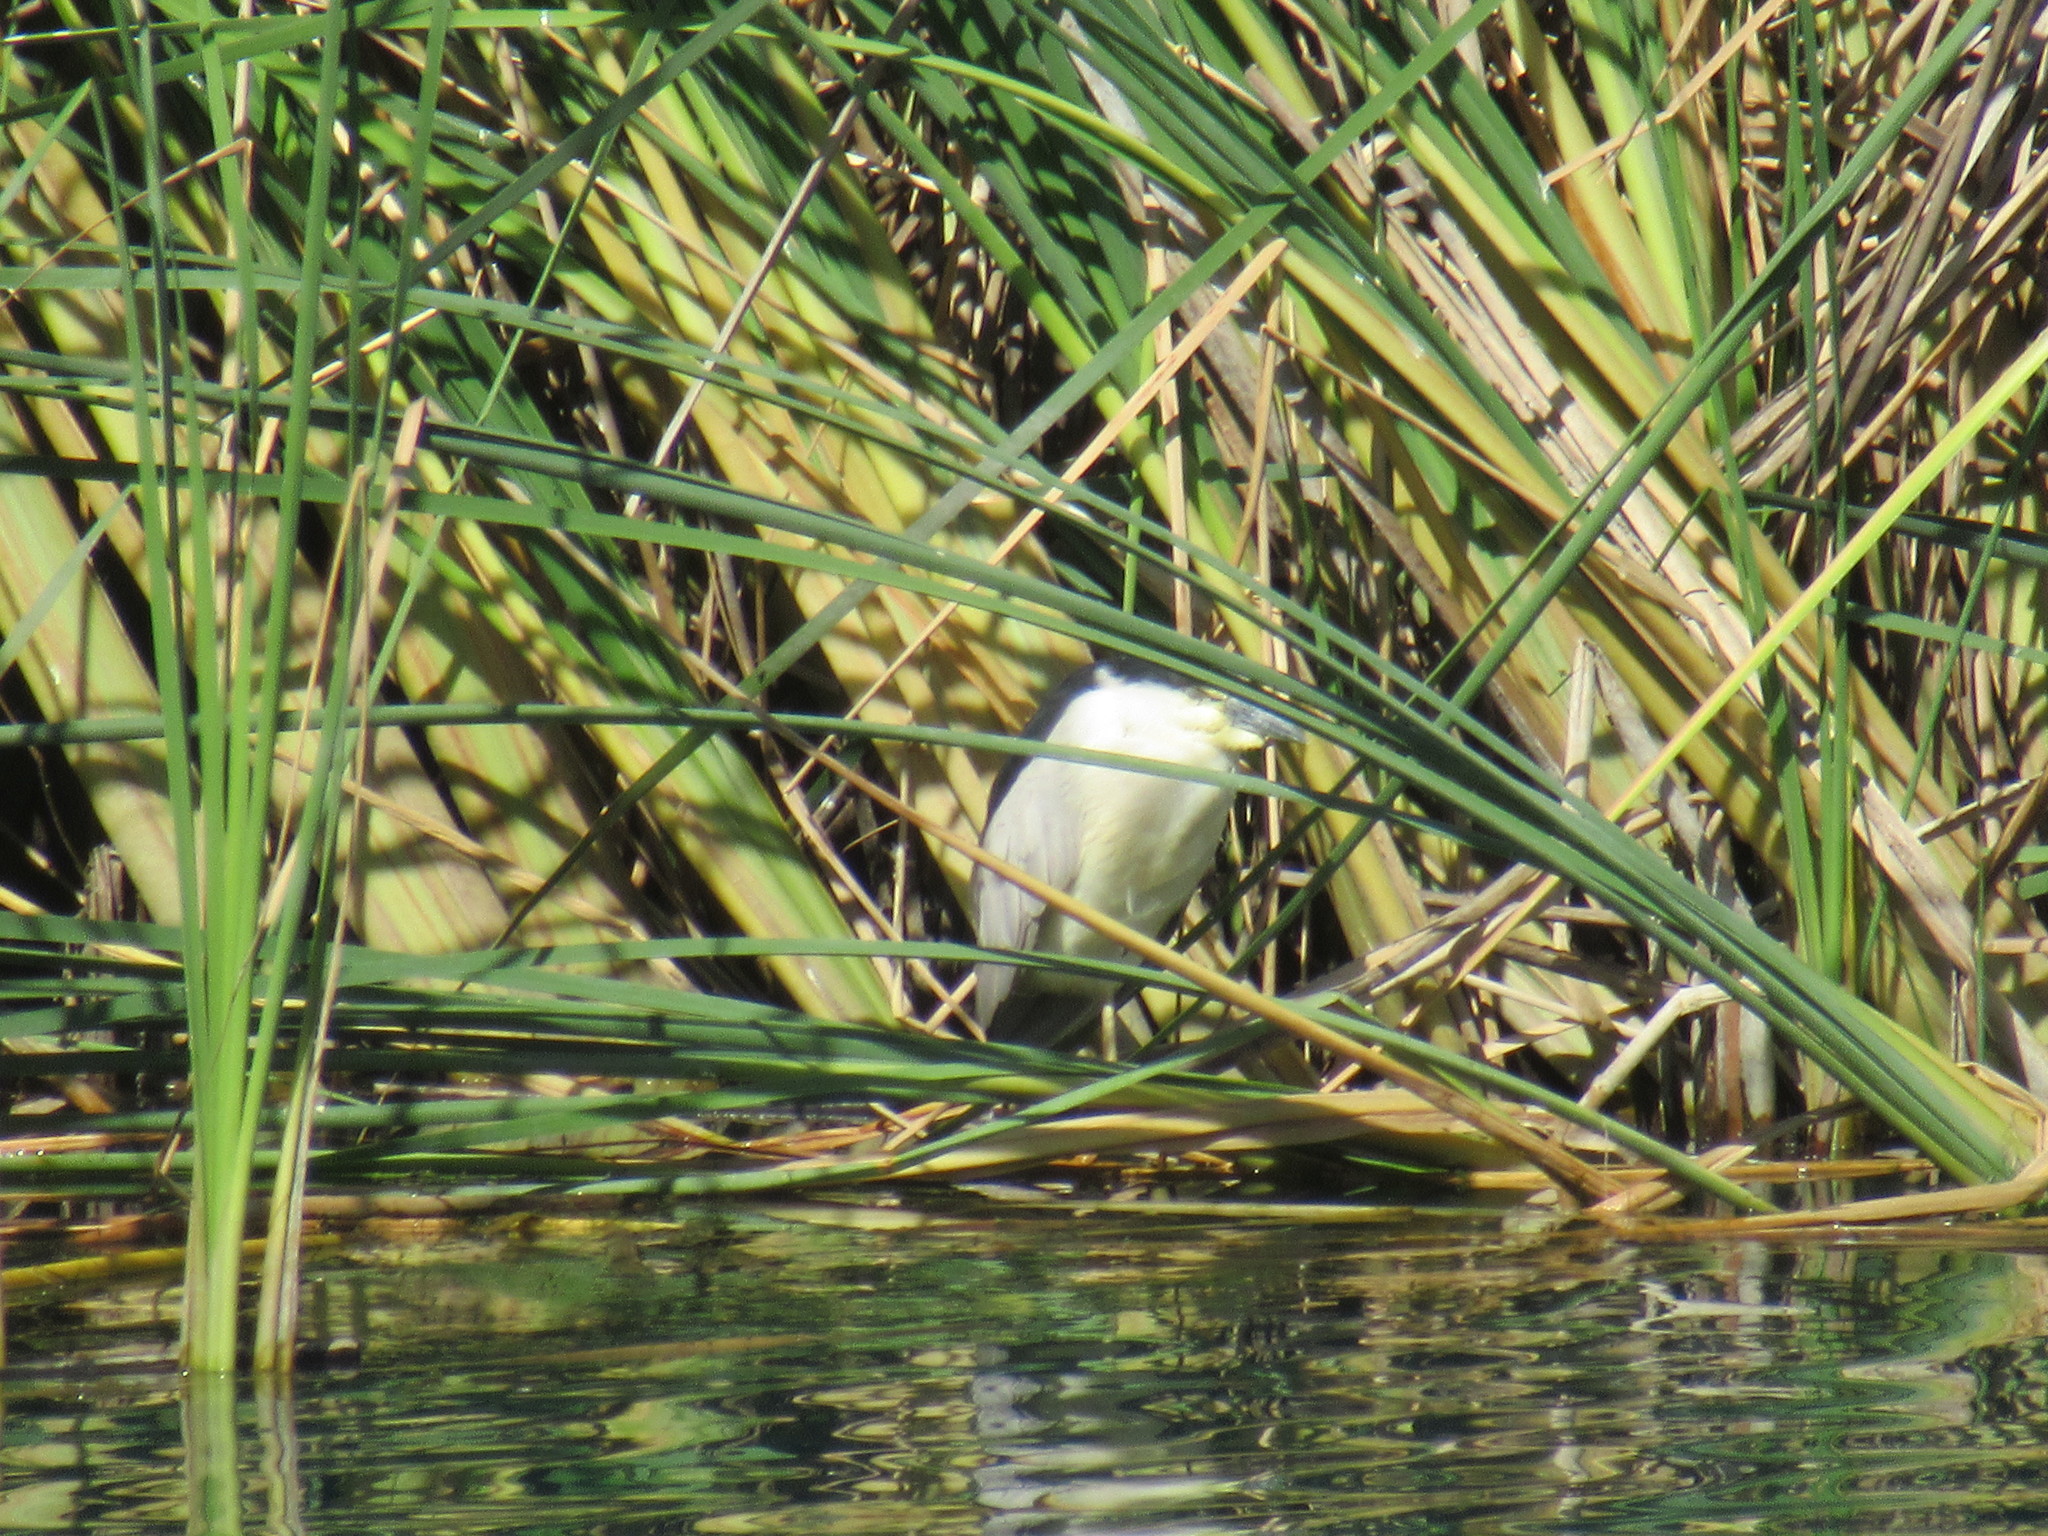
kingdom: Animalia
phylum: Chordata
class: Aves
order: Pelecaniformes
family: Ardeidae
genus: Nycticorax
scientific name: Nycticorax nycticorax
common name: Black-crowned night heron
